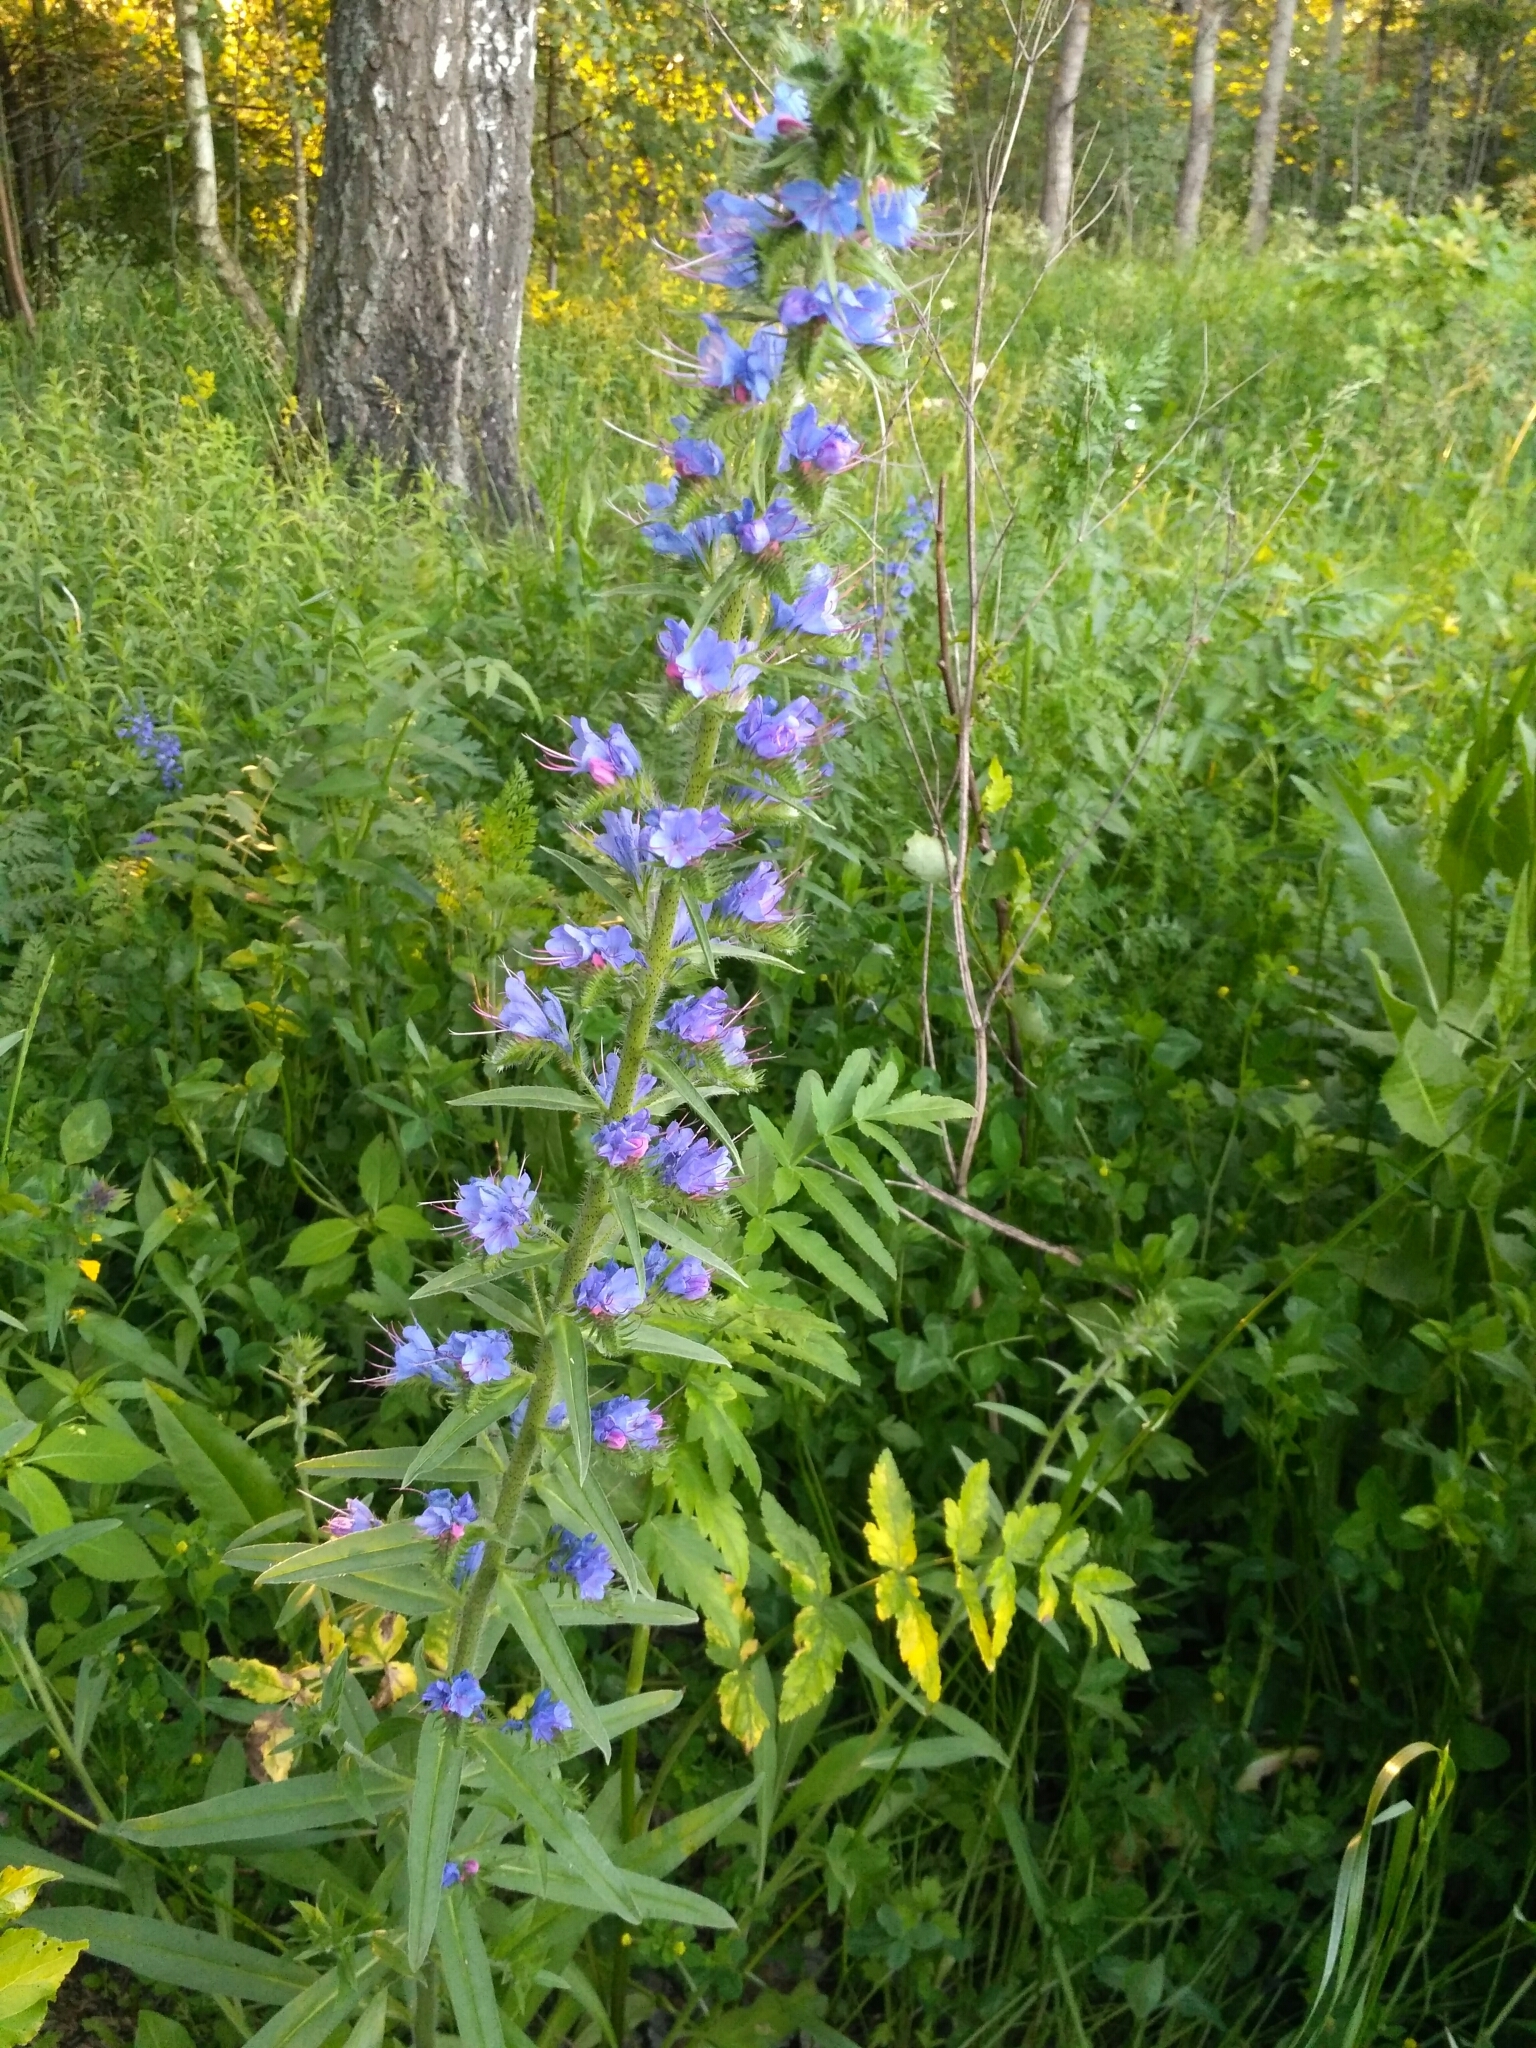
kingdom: Plantae
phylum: Tracheophyta
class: Magnoliopsida
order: Boraginales
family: Boraginaceae
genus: Echium
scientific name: Echium vulgare
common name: Common viper's bugloss
